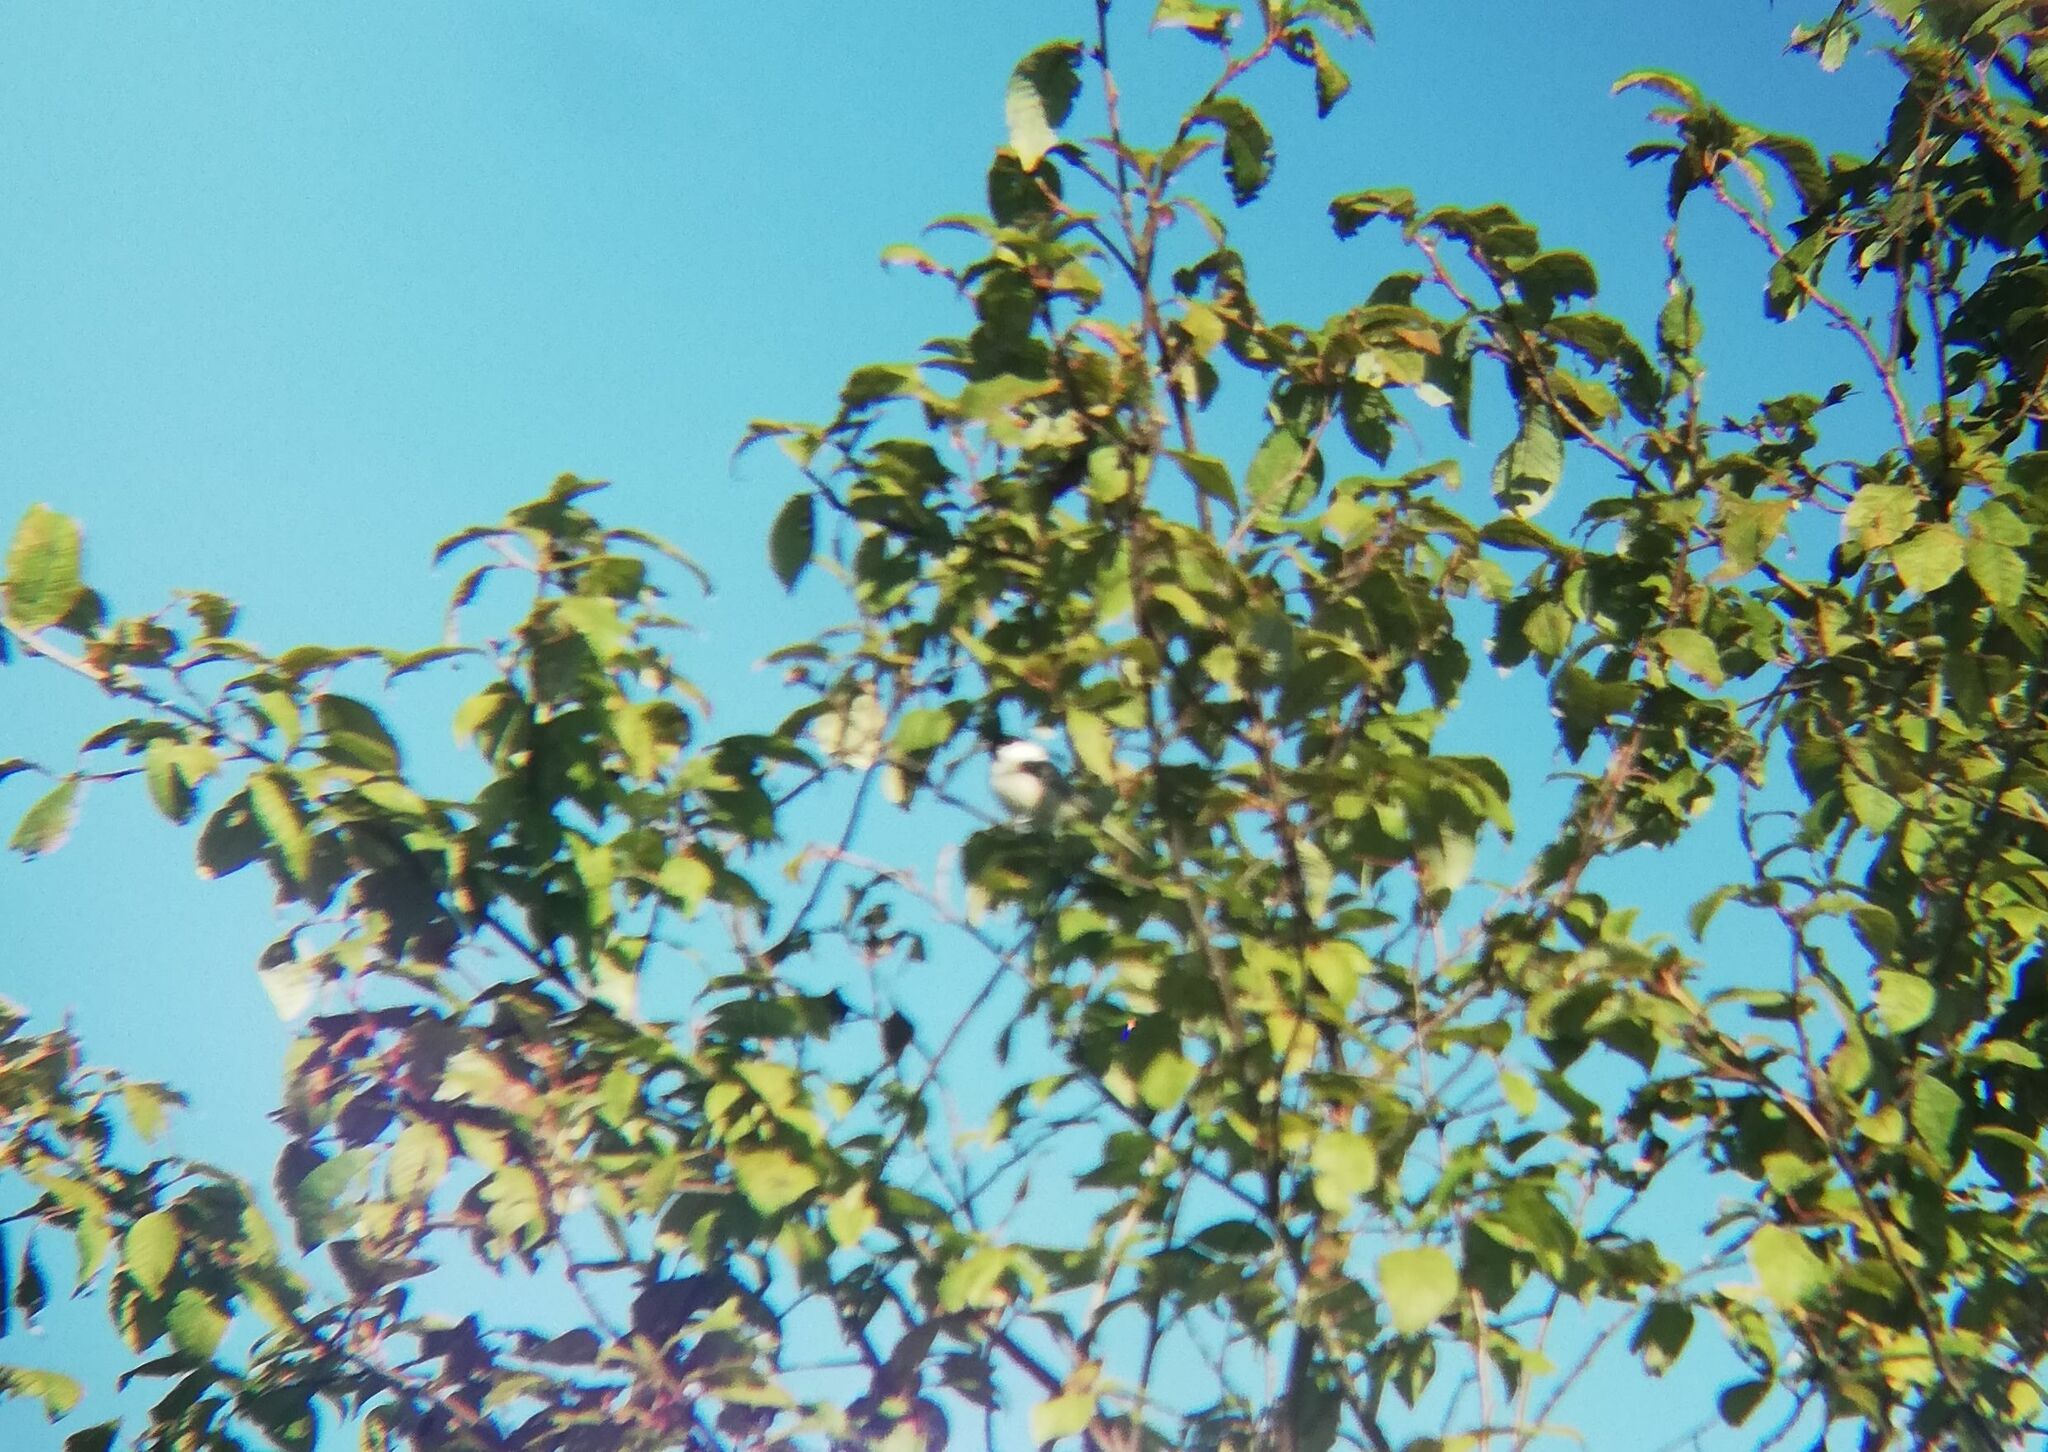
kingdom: Animalia
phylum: Chordata
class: Aves
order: Passeriformes
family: Paridae
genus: Poecile
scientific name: Poecile montanus
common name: Willow tit
